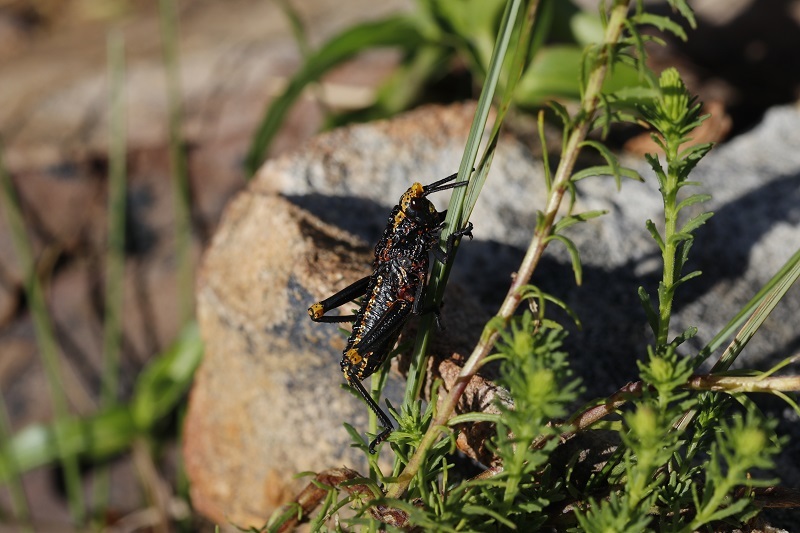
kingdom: Animalia
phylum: Arthropoda
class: Insecta
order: Orthoptera
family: Pyrgomorphidae
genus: Dictyophorus
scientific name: Dictyophorus spumans
